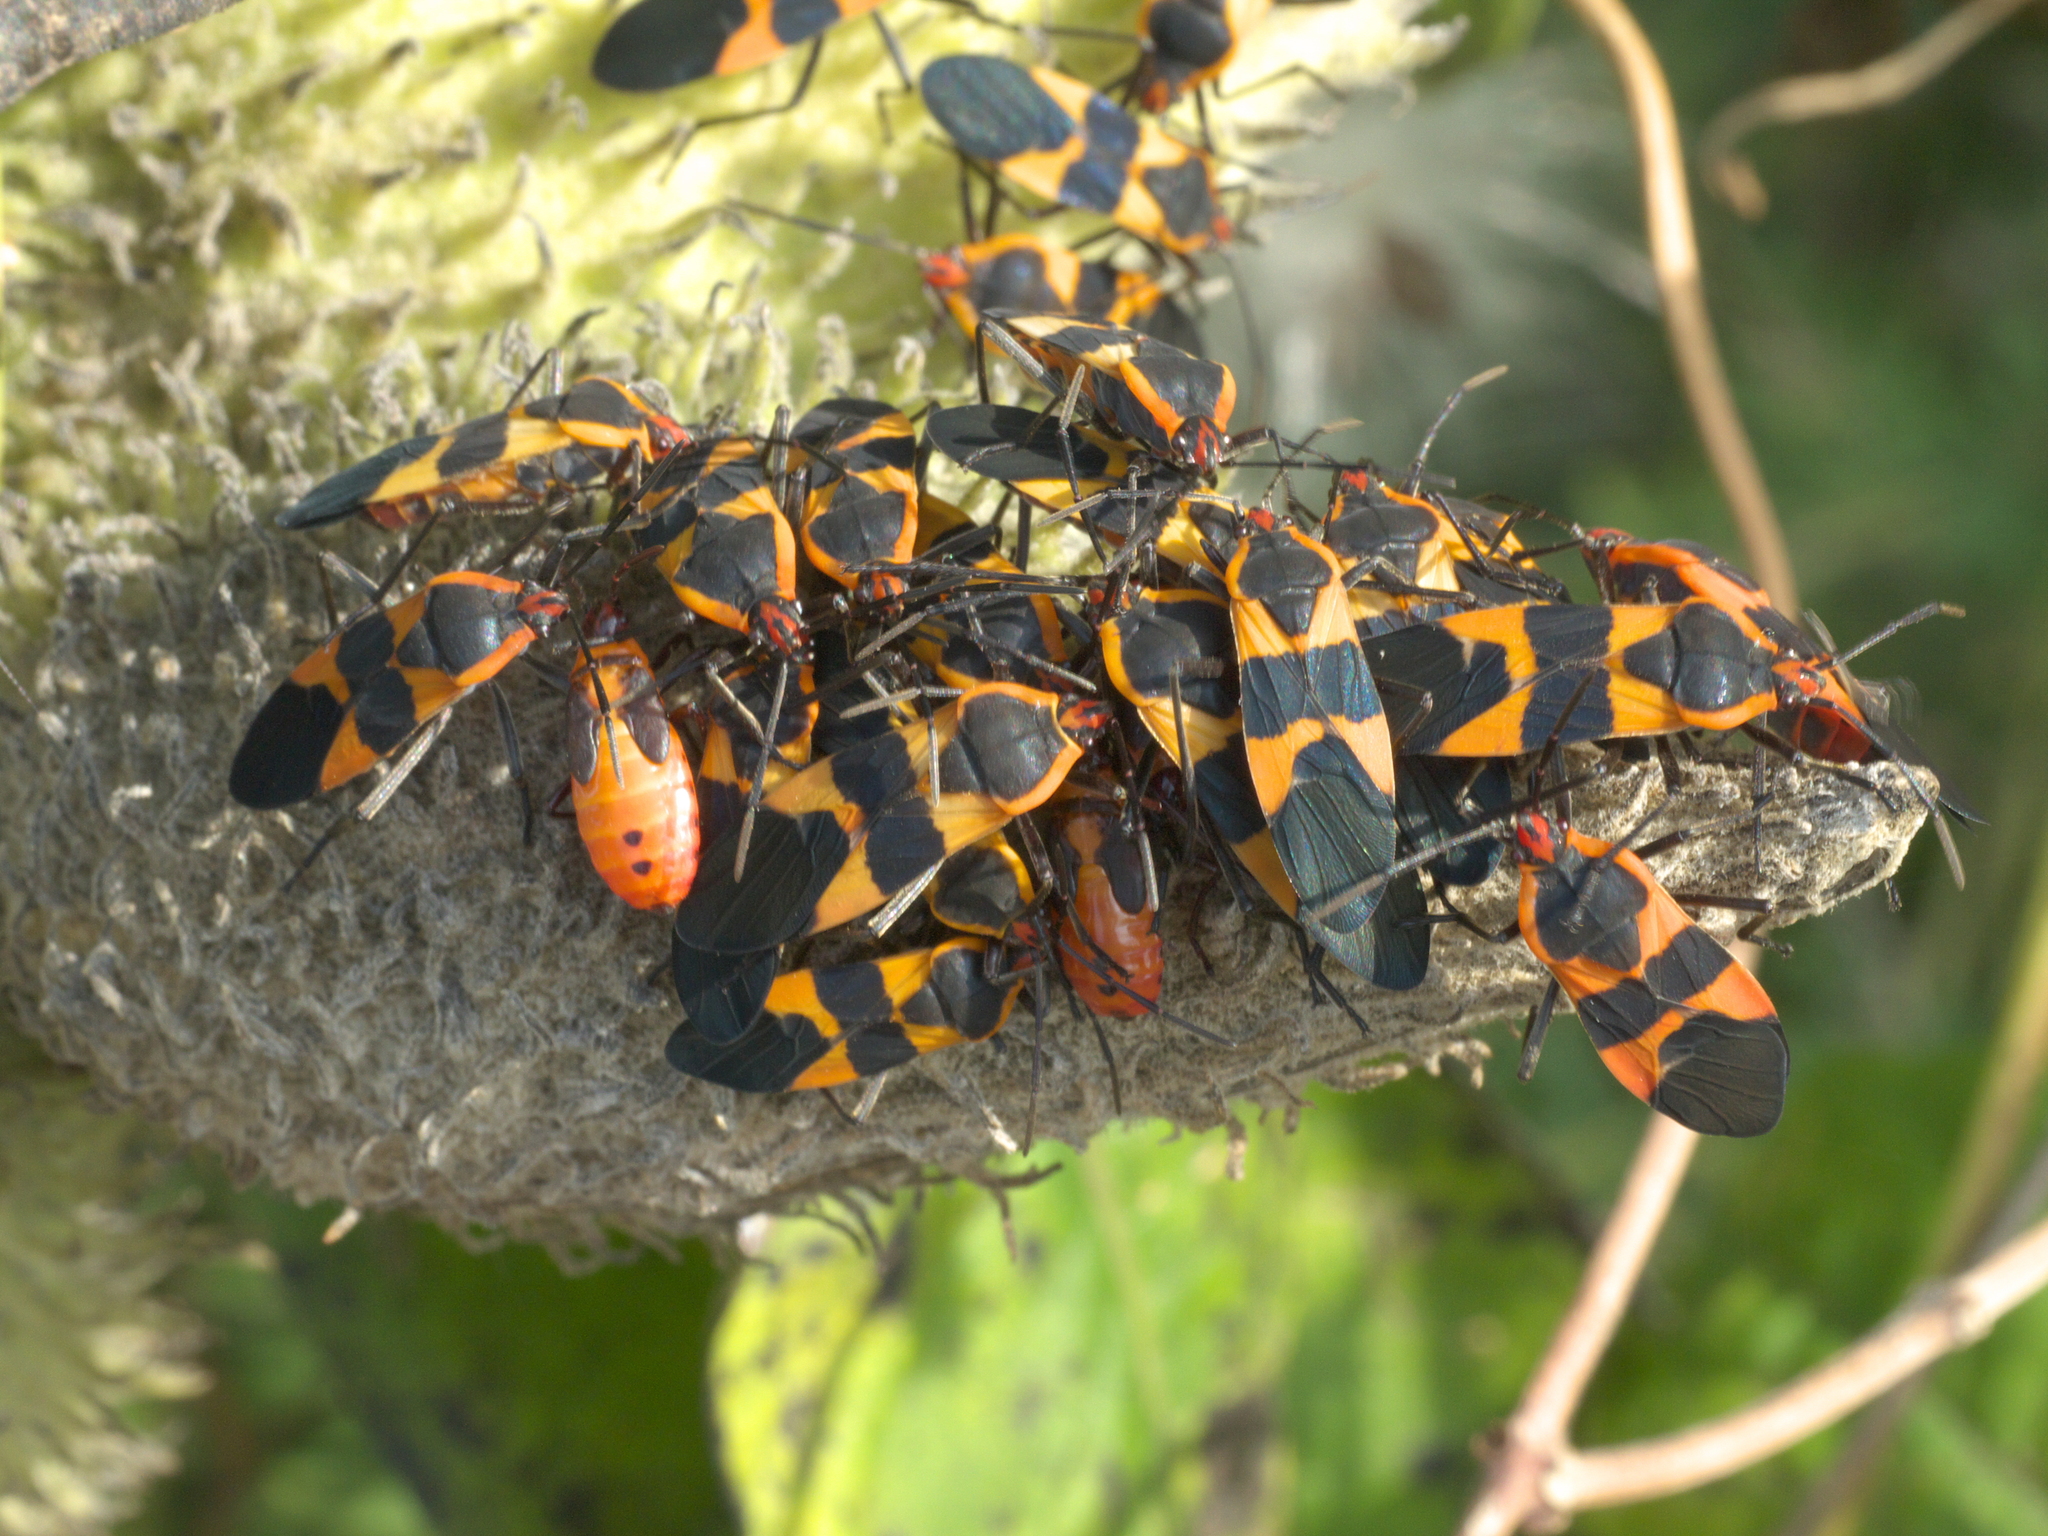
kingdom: Animalia
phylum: Arthropoda
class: Insecta
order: Hemiptera
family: Lygaeidae
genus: Oncopeltus
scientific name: Oncopeltus fasciatus
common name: Large milkweed bug
